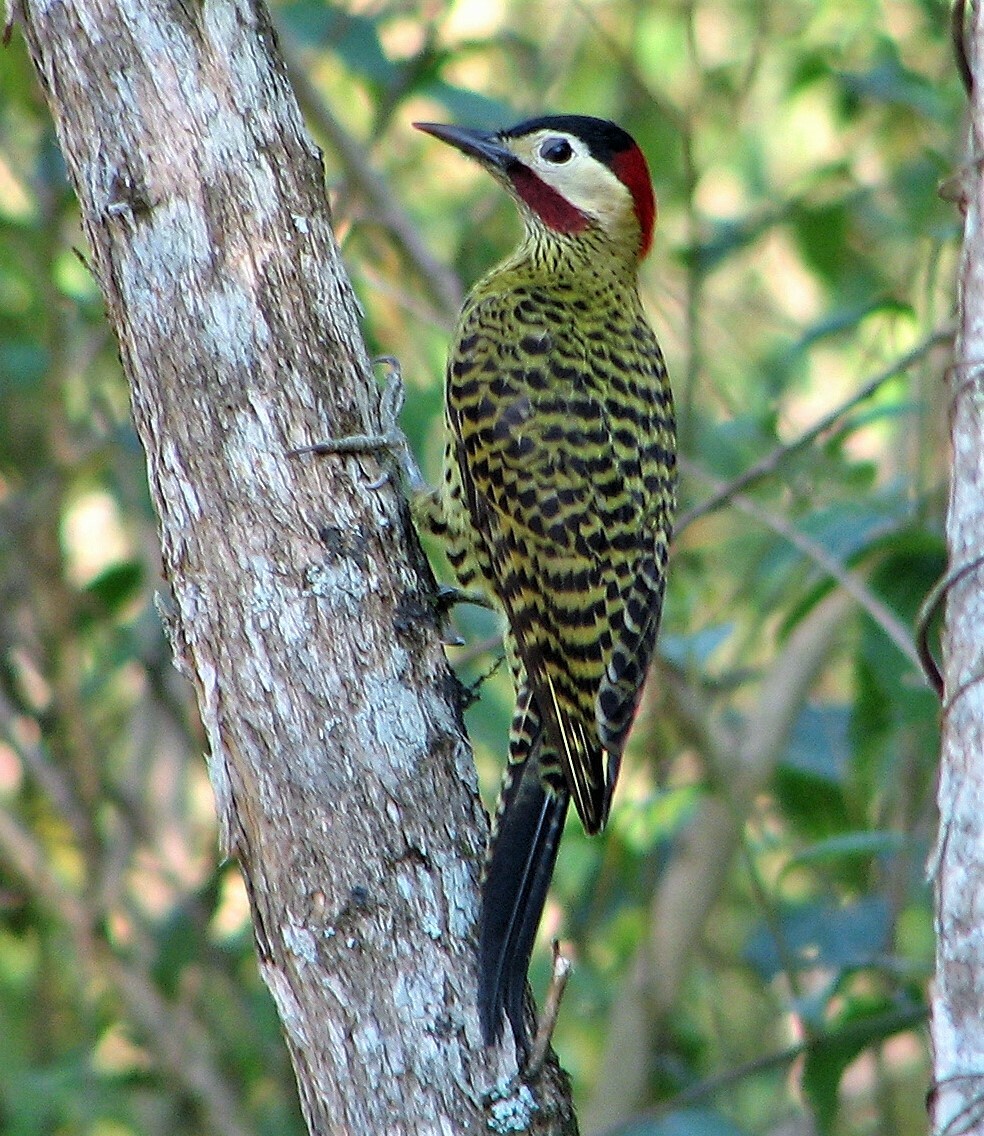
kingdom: Animalia
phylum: Chordata
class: Aves
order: Piciformes
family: Picidae
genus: Colaptes
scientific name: Colaptes melanochloros
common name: Green-barred woodpecker
